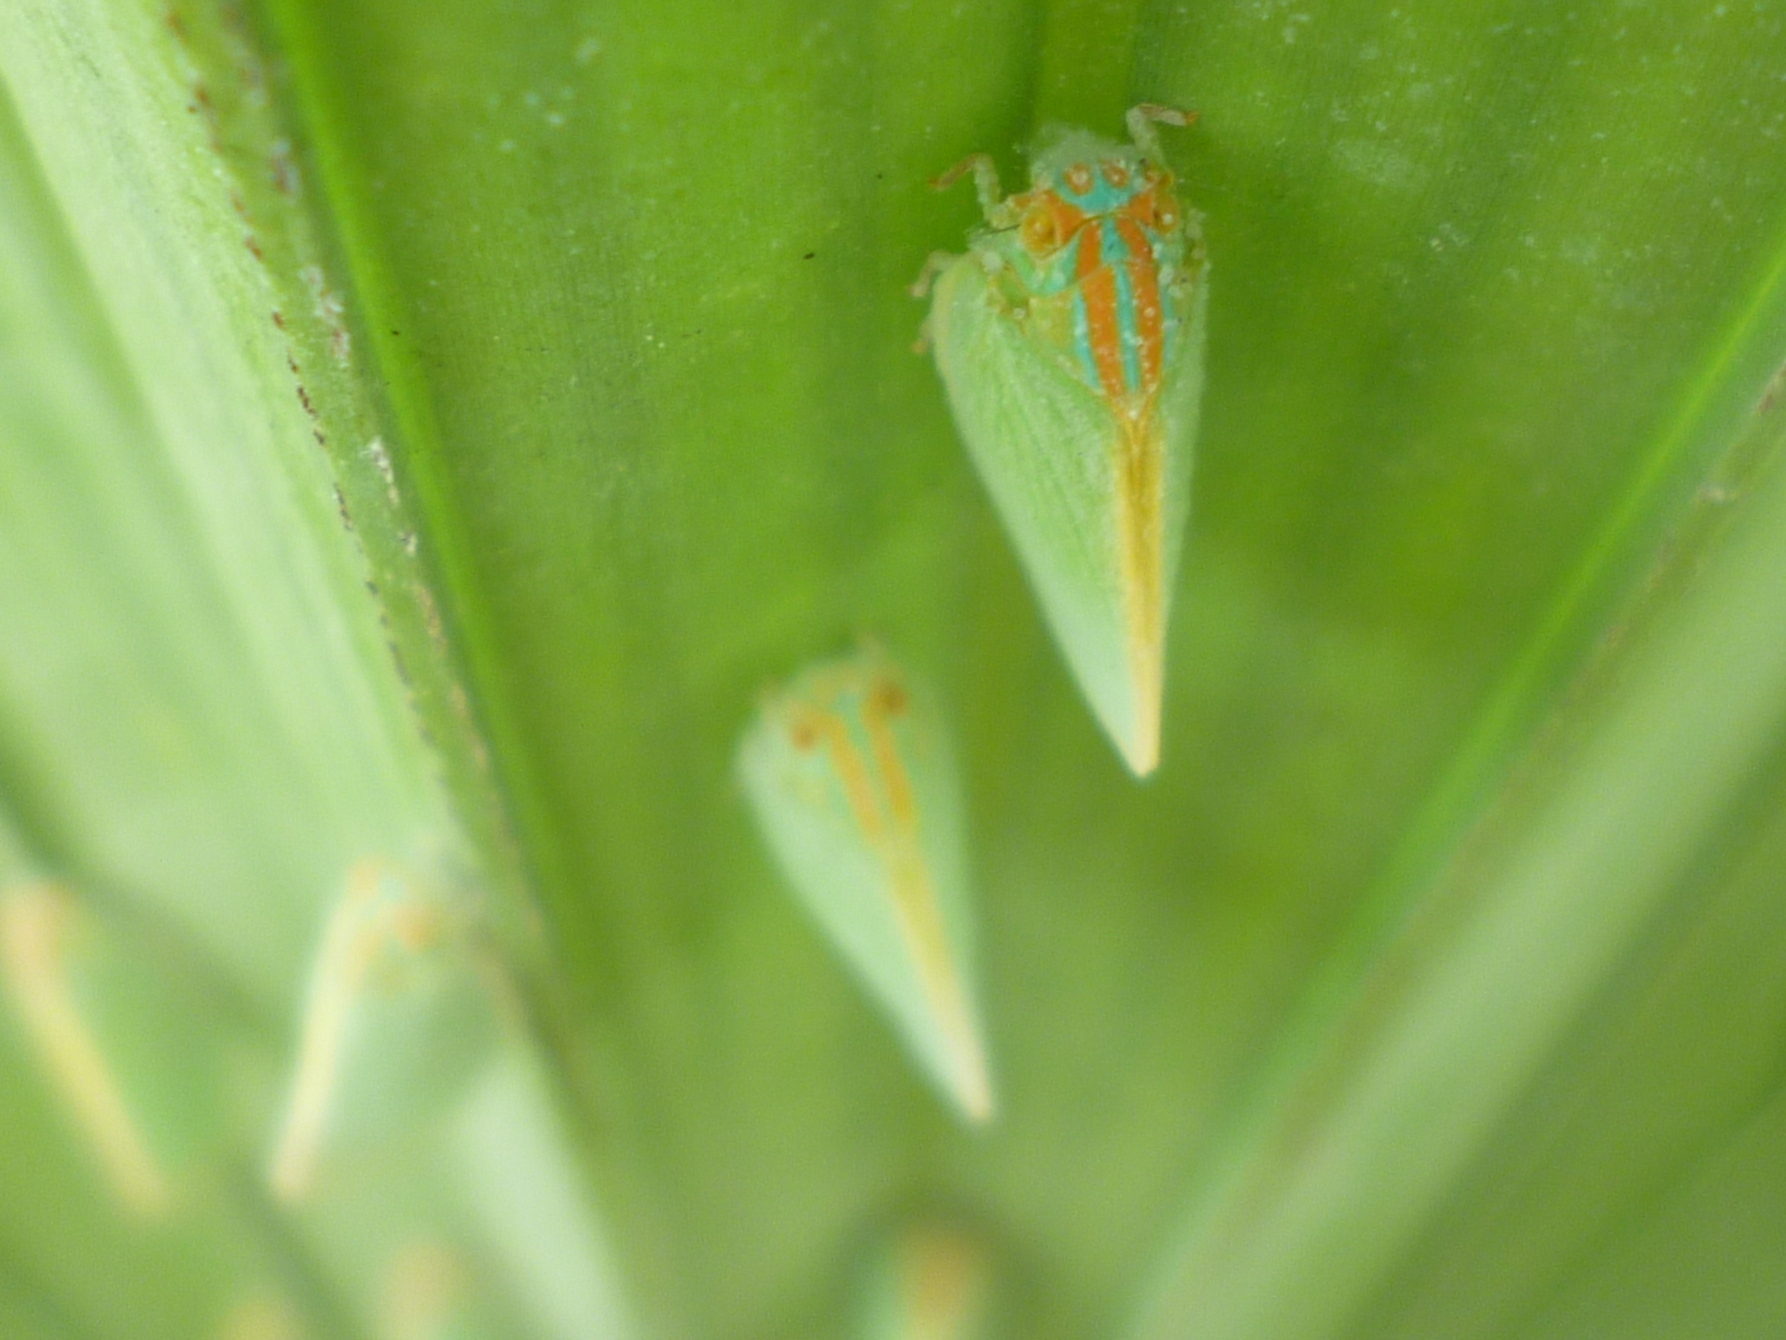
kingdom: Animalia
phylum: Arthropoda
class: Insecta
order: Hemiptera
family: Flatidae
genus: Ormenaria
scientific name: Ormenaria rufifascia
